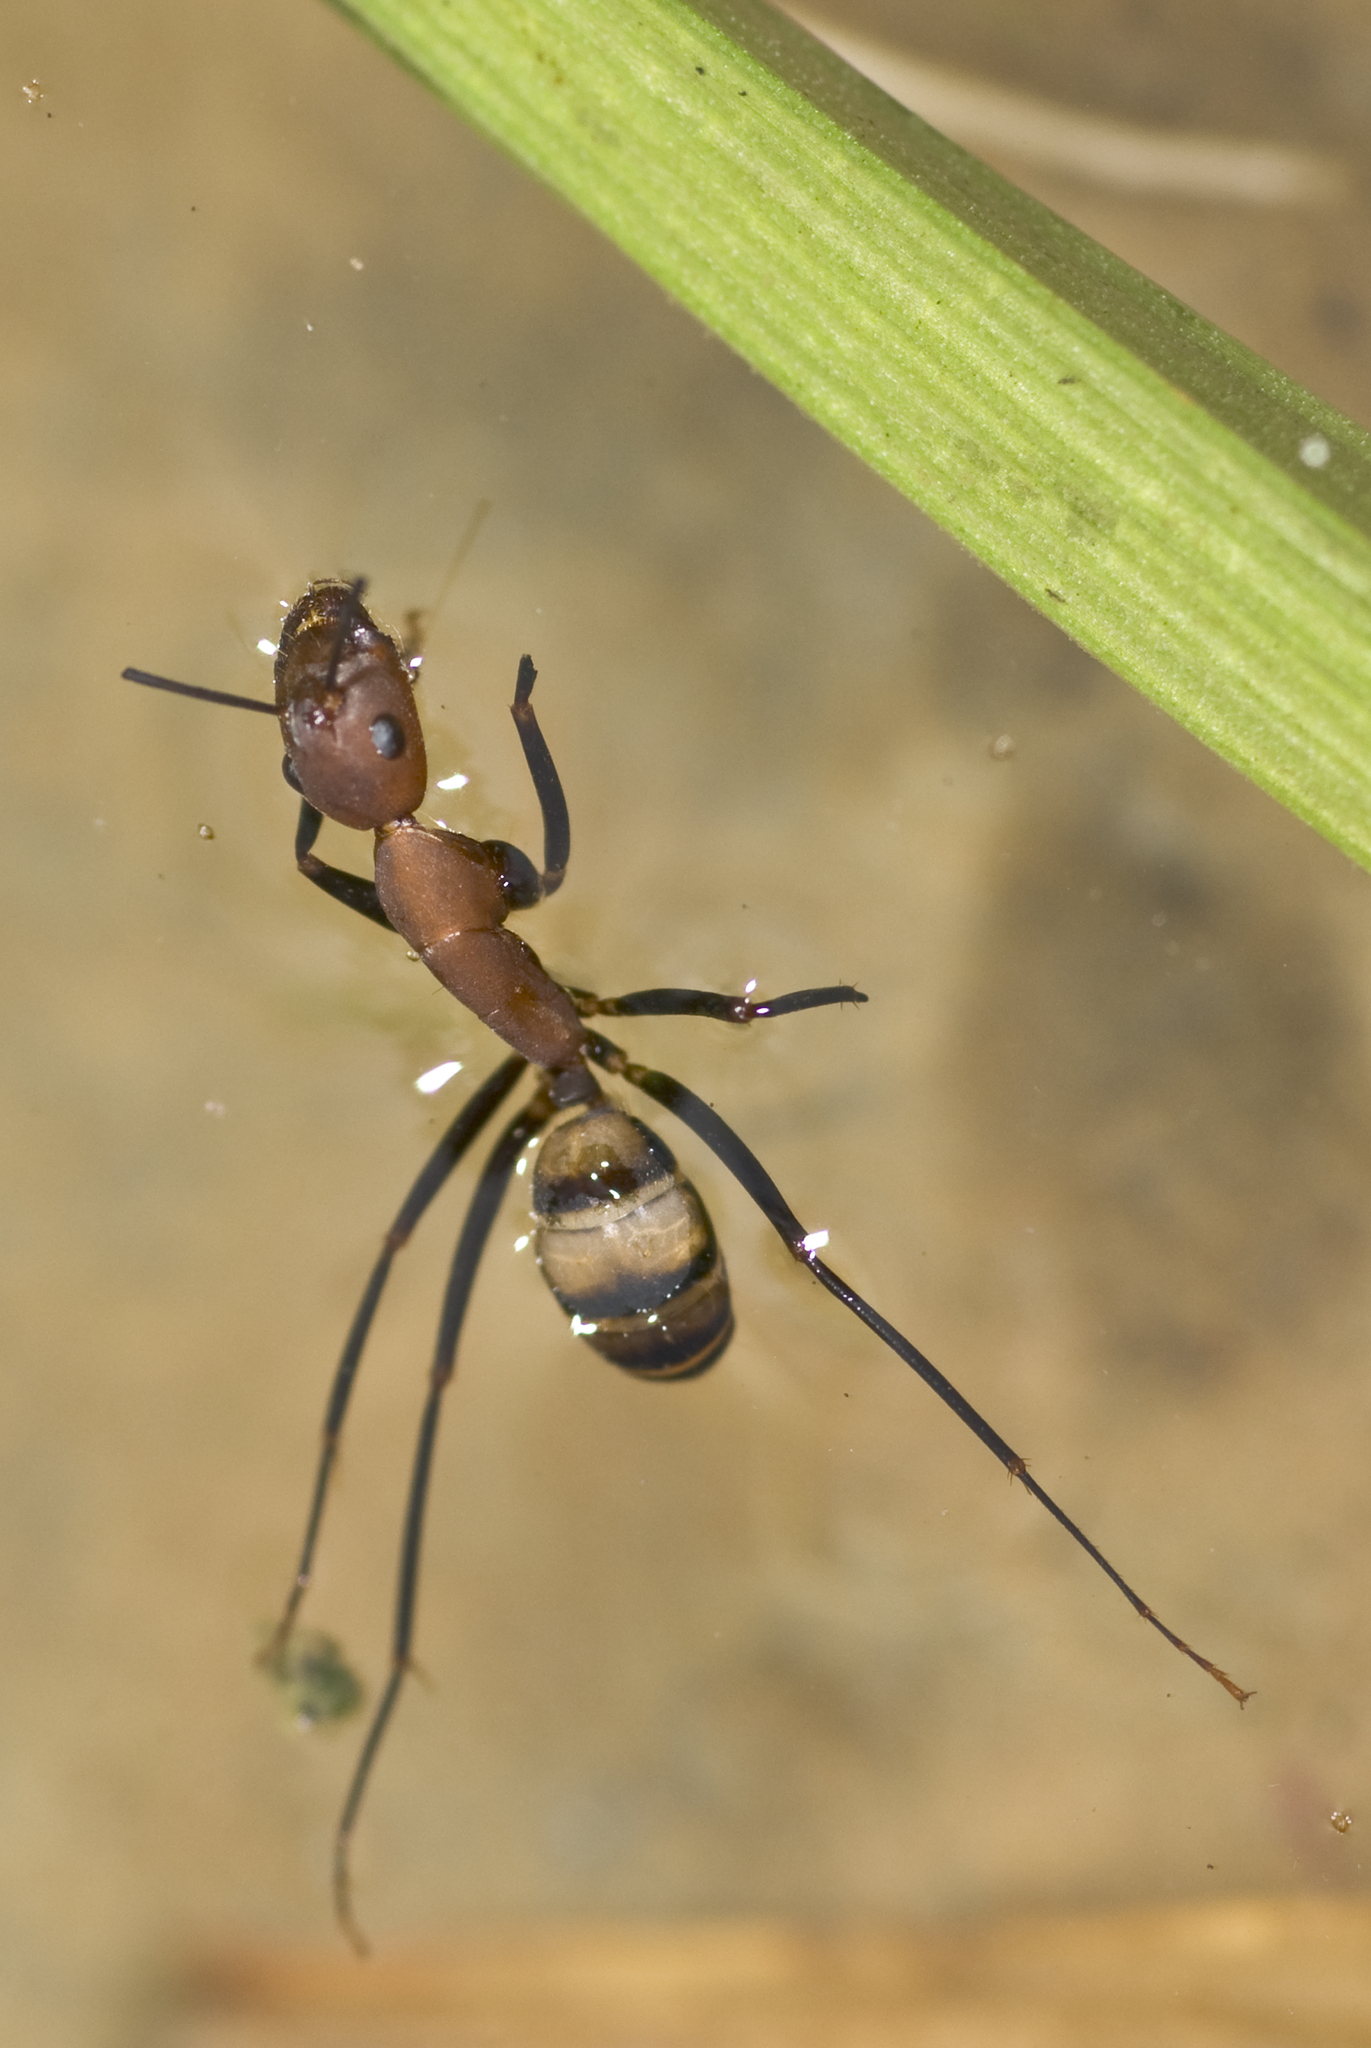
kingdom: Animalia
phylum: Arthropoda
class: Insecta
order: Hymenoptera
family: Formicidae
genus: Camponotus
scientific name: Camponotus habereri
